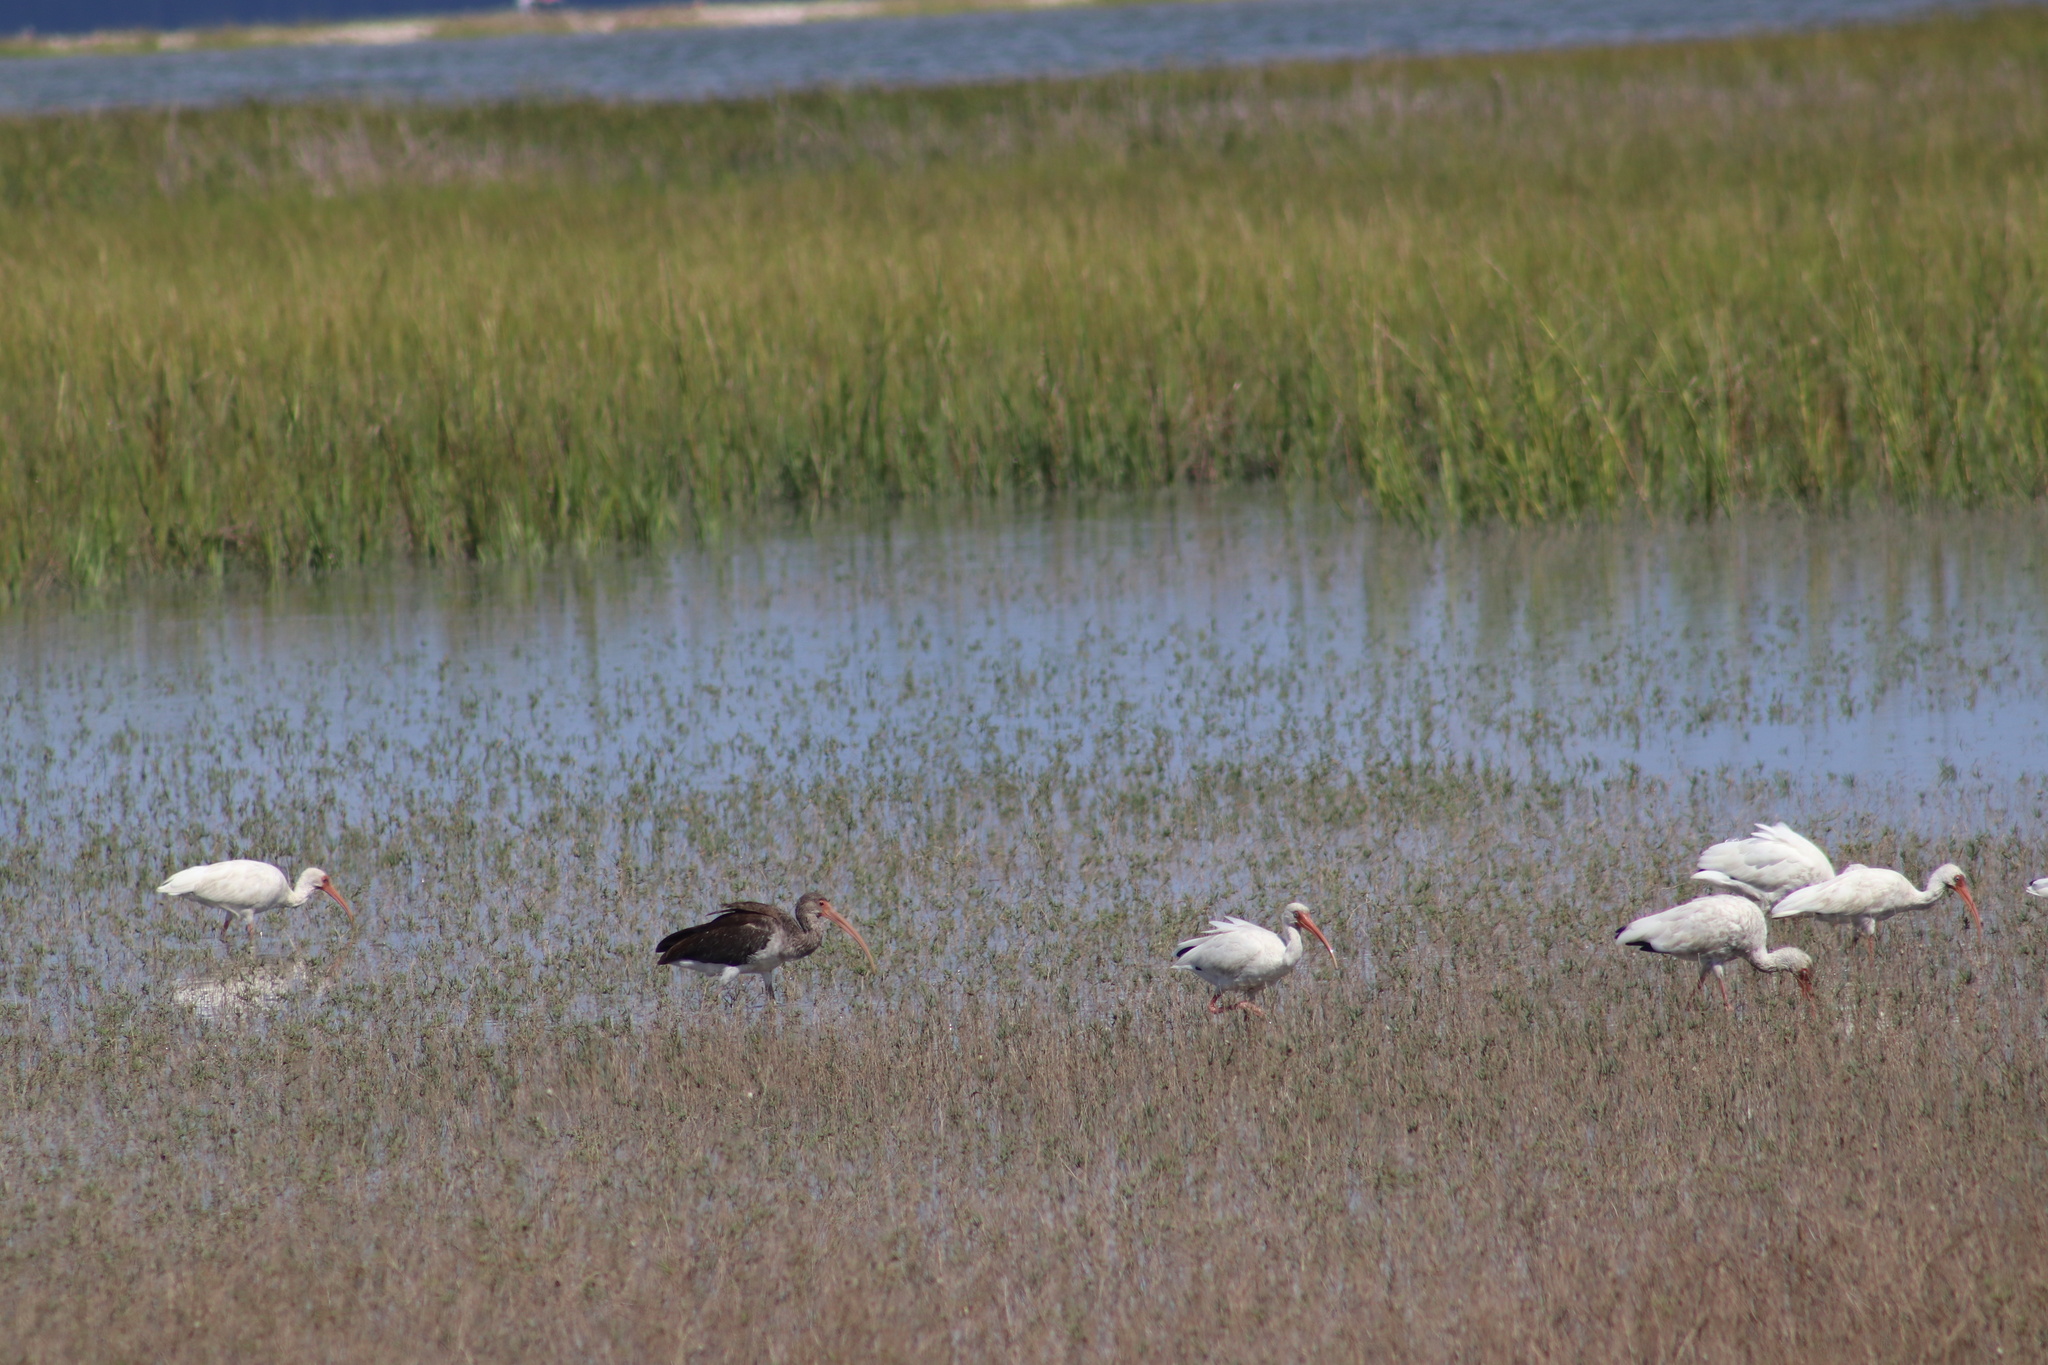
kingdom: Animalia
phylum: Chordata
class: Aves
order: Pelecaniformes
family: Threskiornithidae
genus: Eudocimus
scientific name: Eudocimus albus
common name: White ibis
